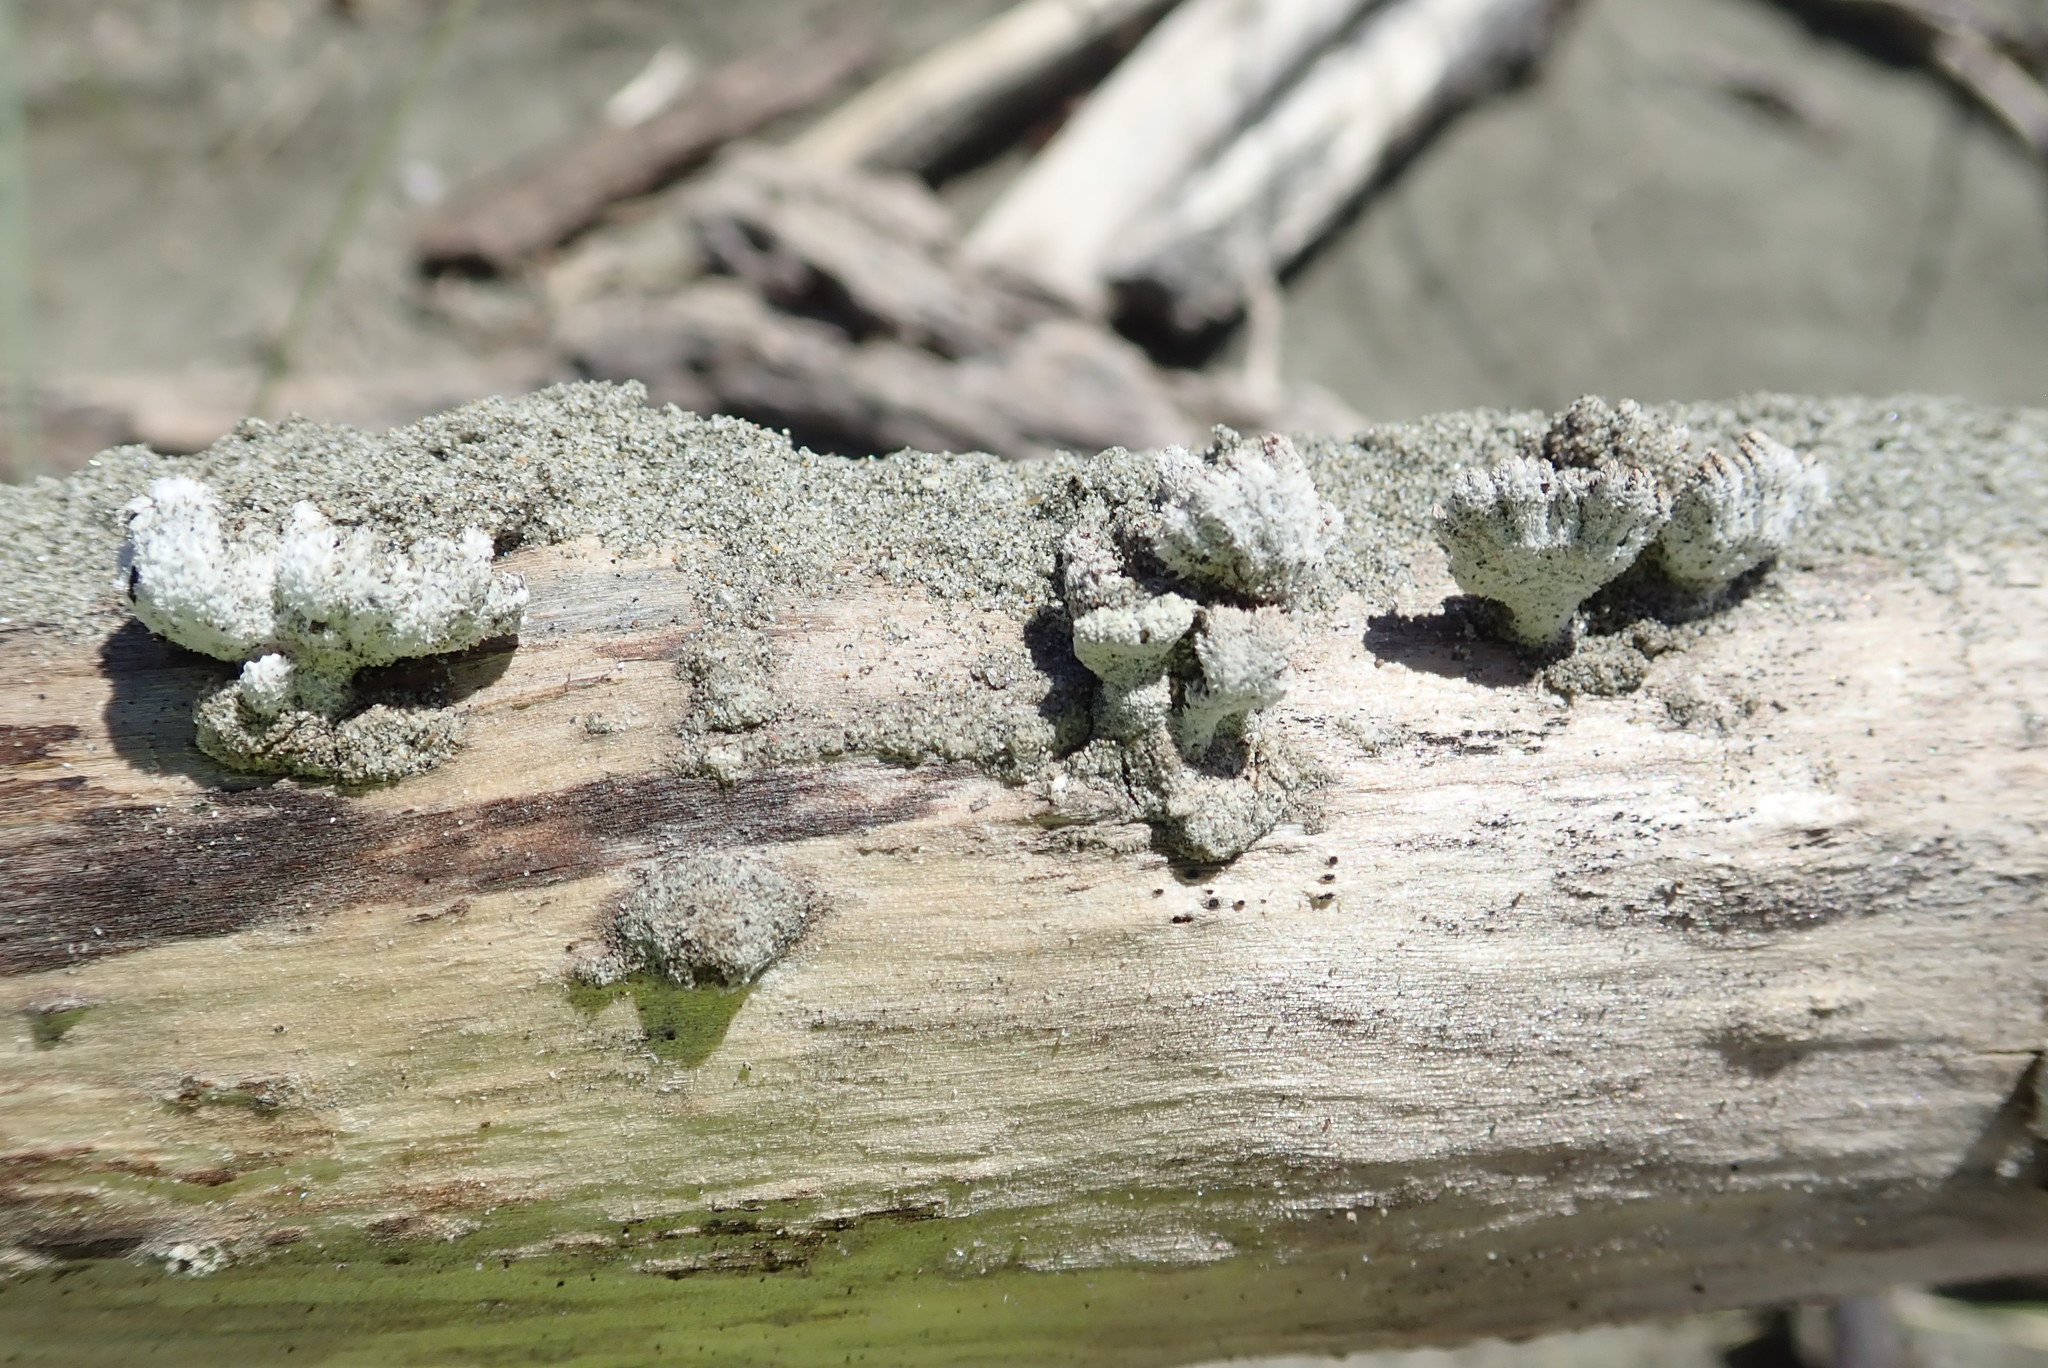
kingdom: Fungi
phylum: Basidiomycota
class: Agaricomycetes
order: Agaricales
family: Schizophyllaceae
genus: Schizophyllum
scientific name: Schizophyllum commune
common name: Common porecrust
